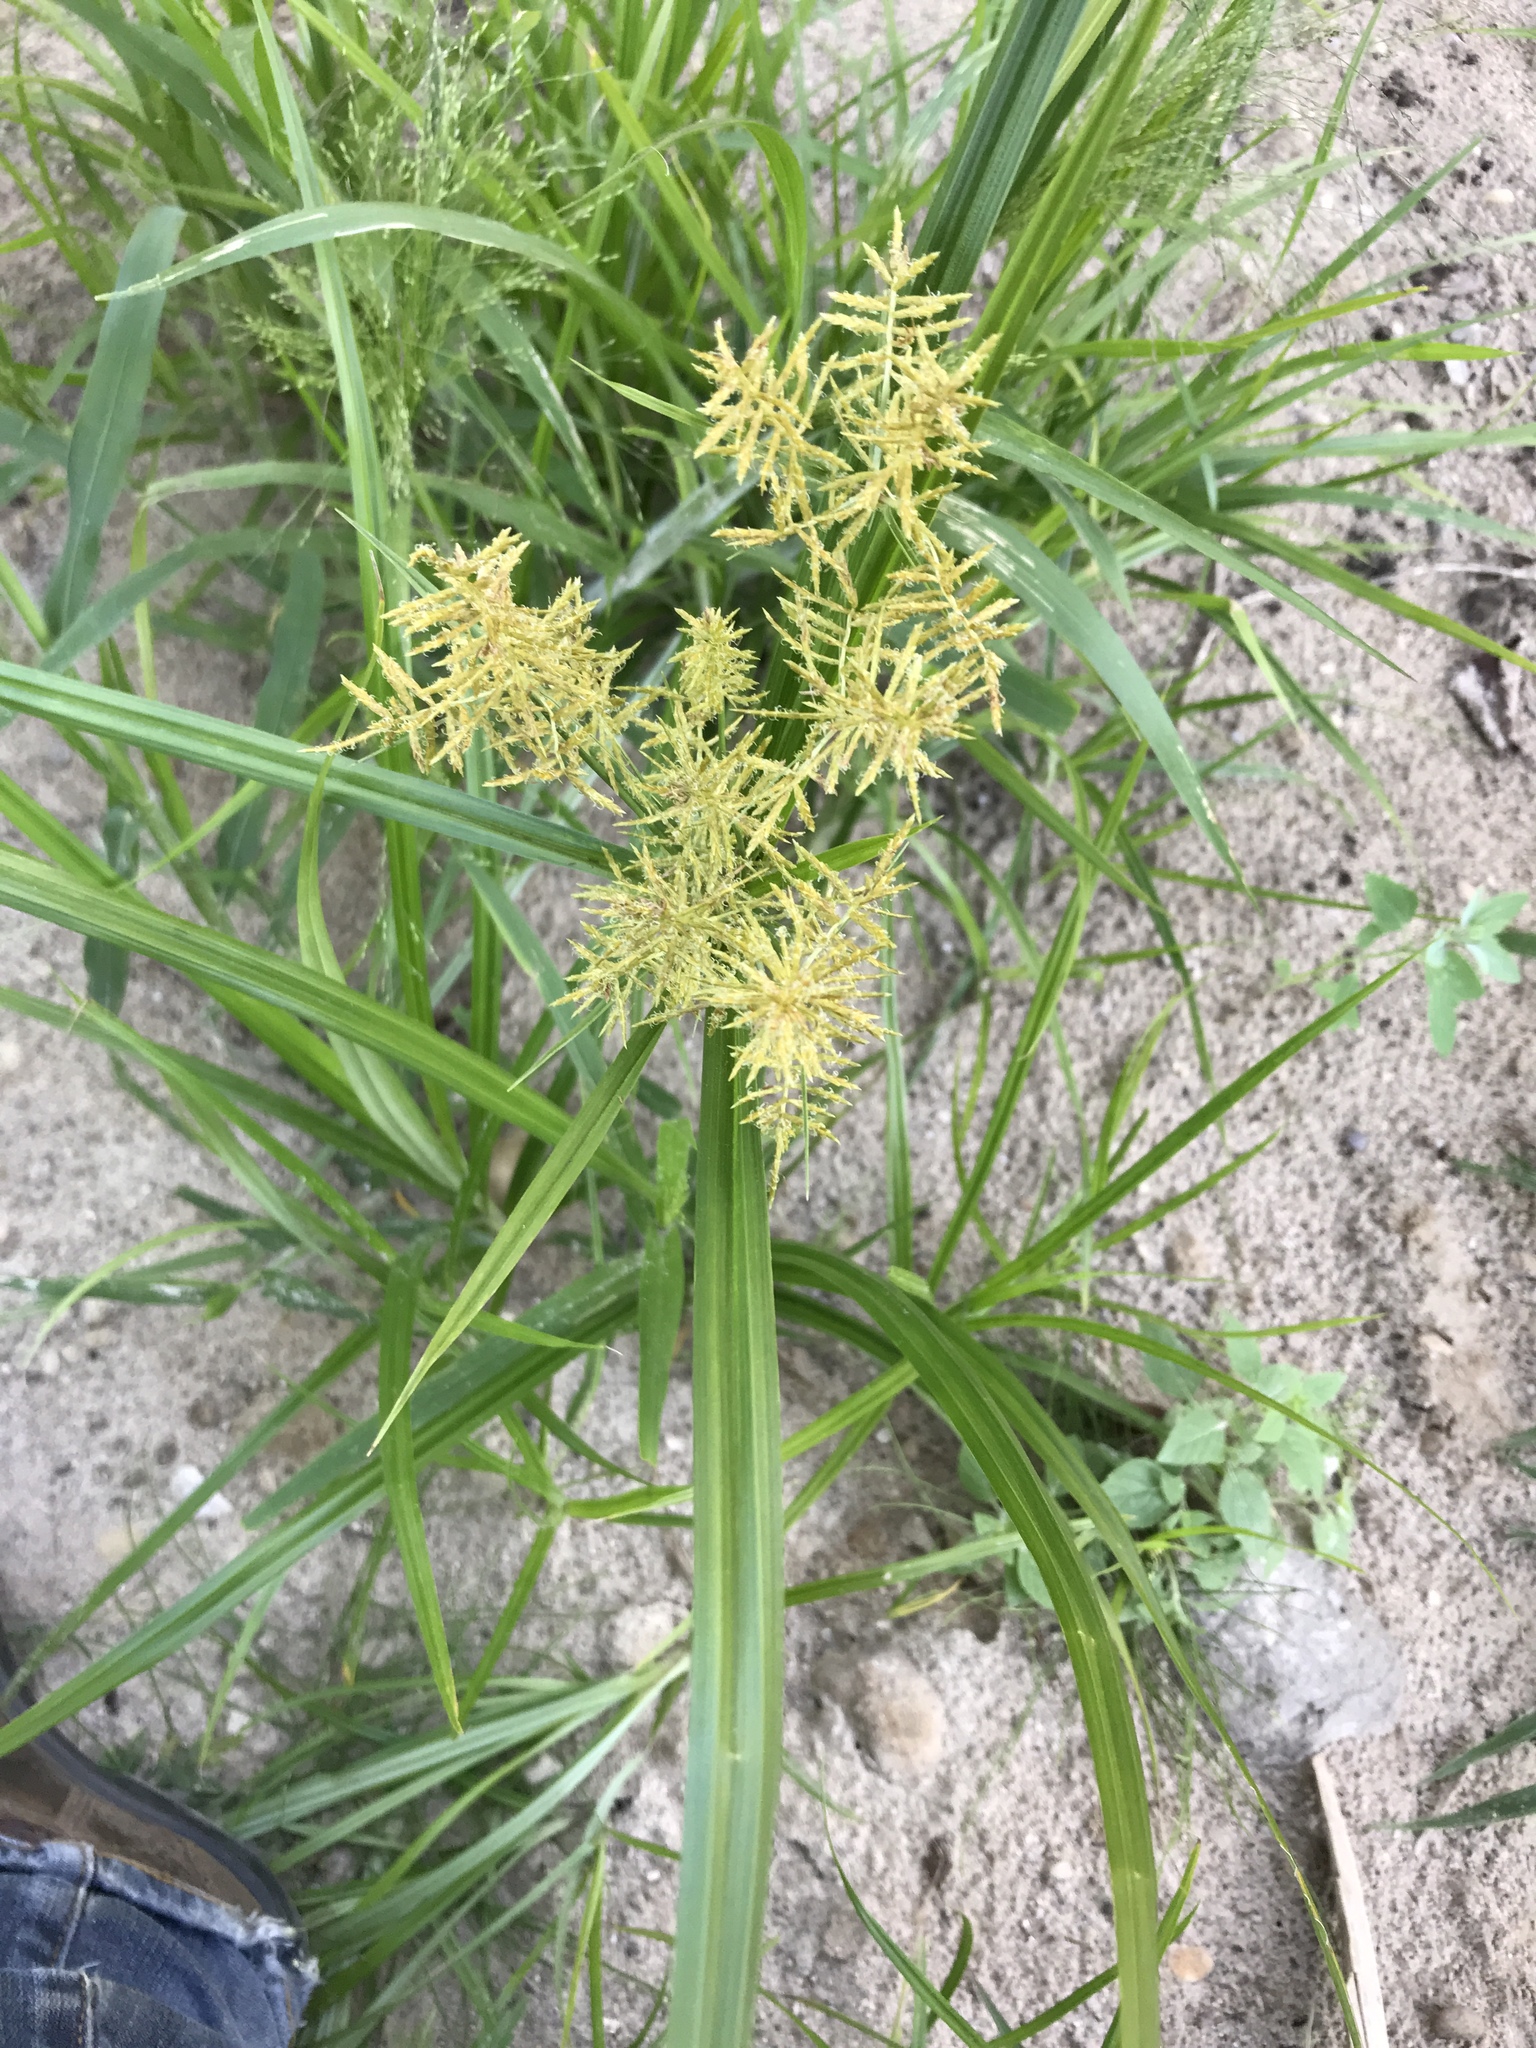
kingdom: Plantae
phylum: Tracheophyta
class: Liliopsida
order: Poales
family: Cyperaceae
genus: Cyperus
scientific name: Cyperus esculentus
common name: Yellow nutsedge
